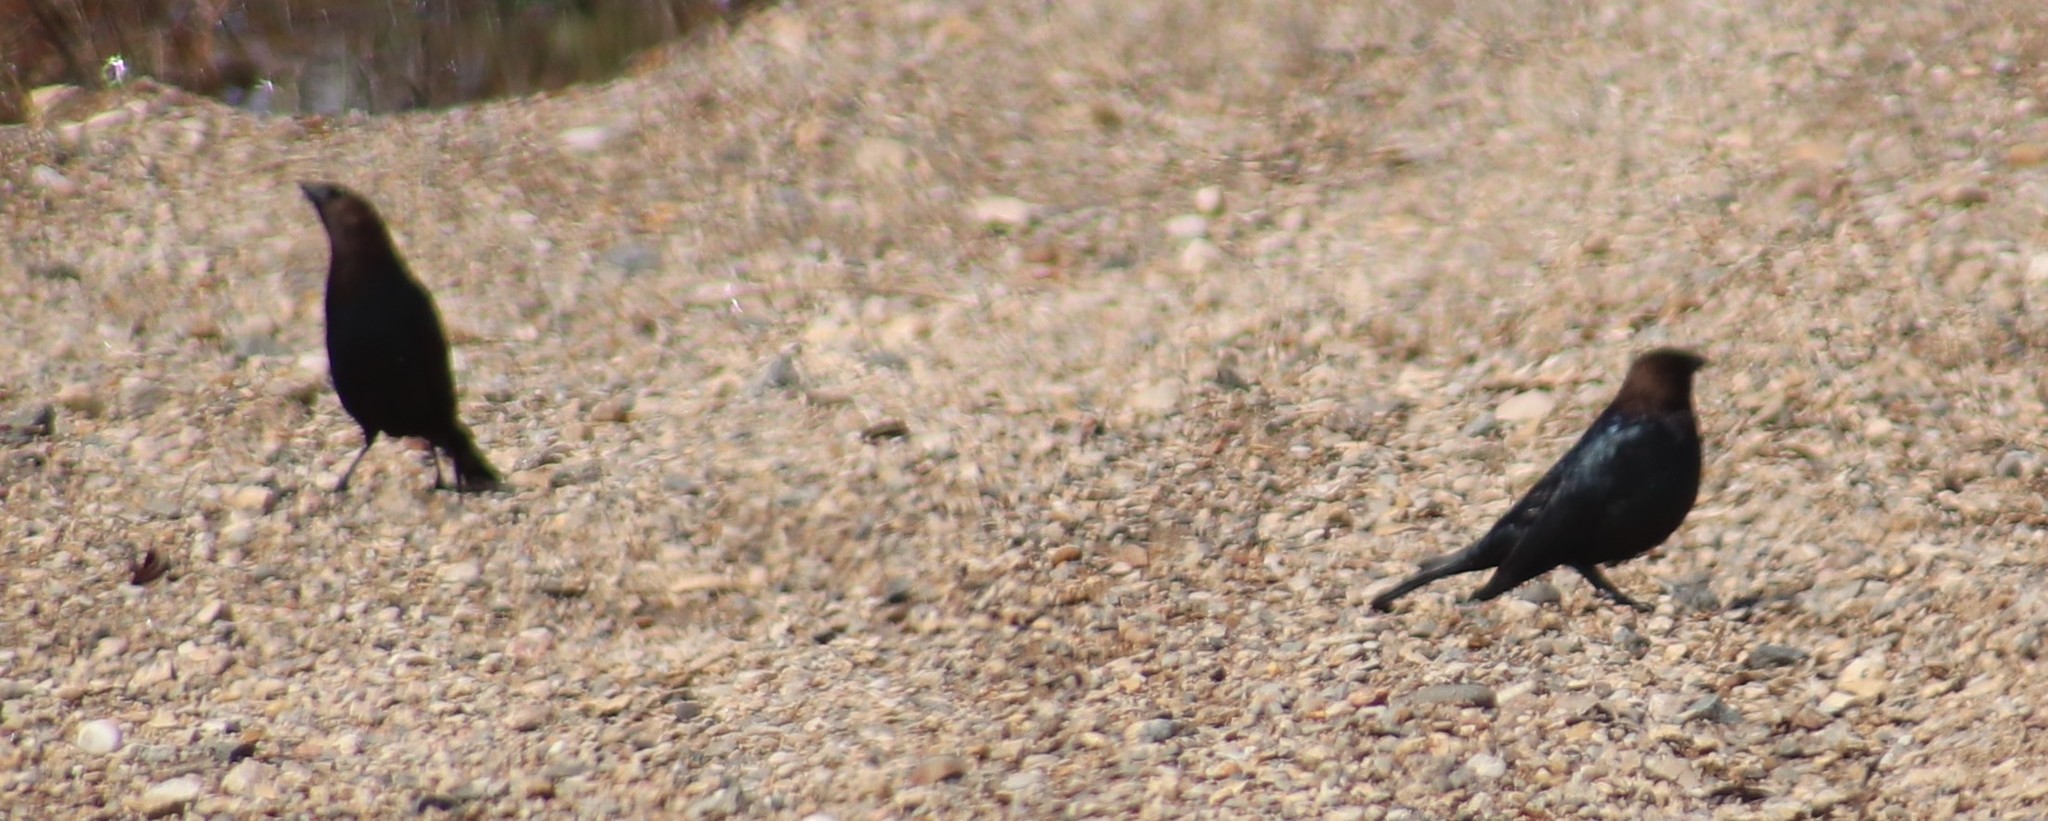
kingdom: Animalia
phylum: Chordata
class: Aves
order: Passeriformes
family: Icteridae
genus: Molothrus
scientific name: Molothrus ater
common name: Brown-headed cowbird
